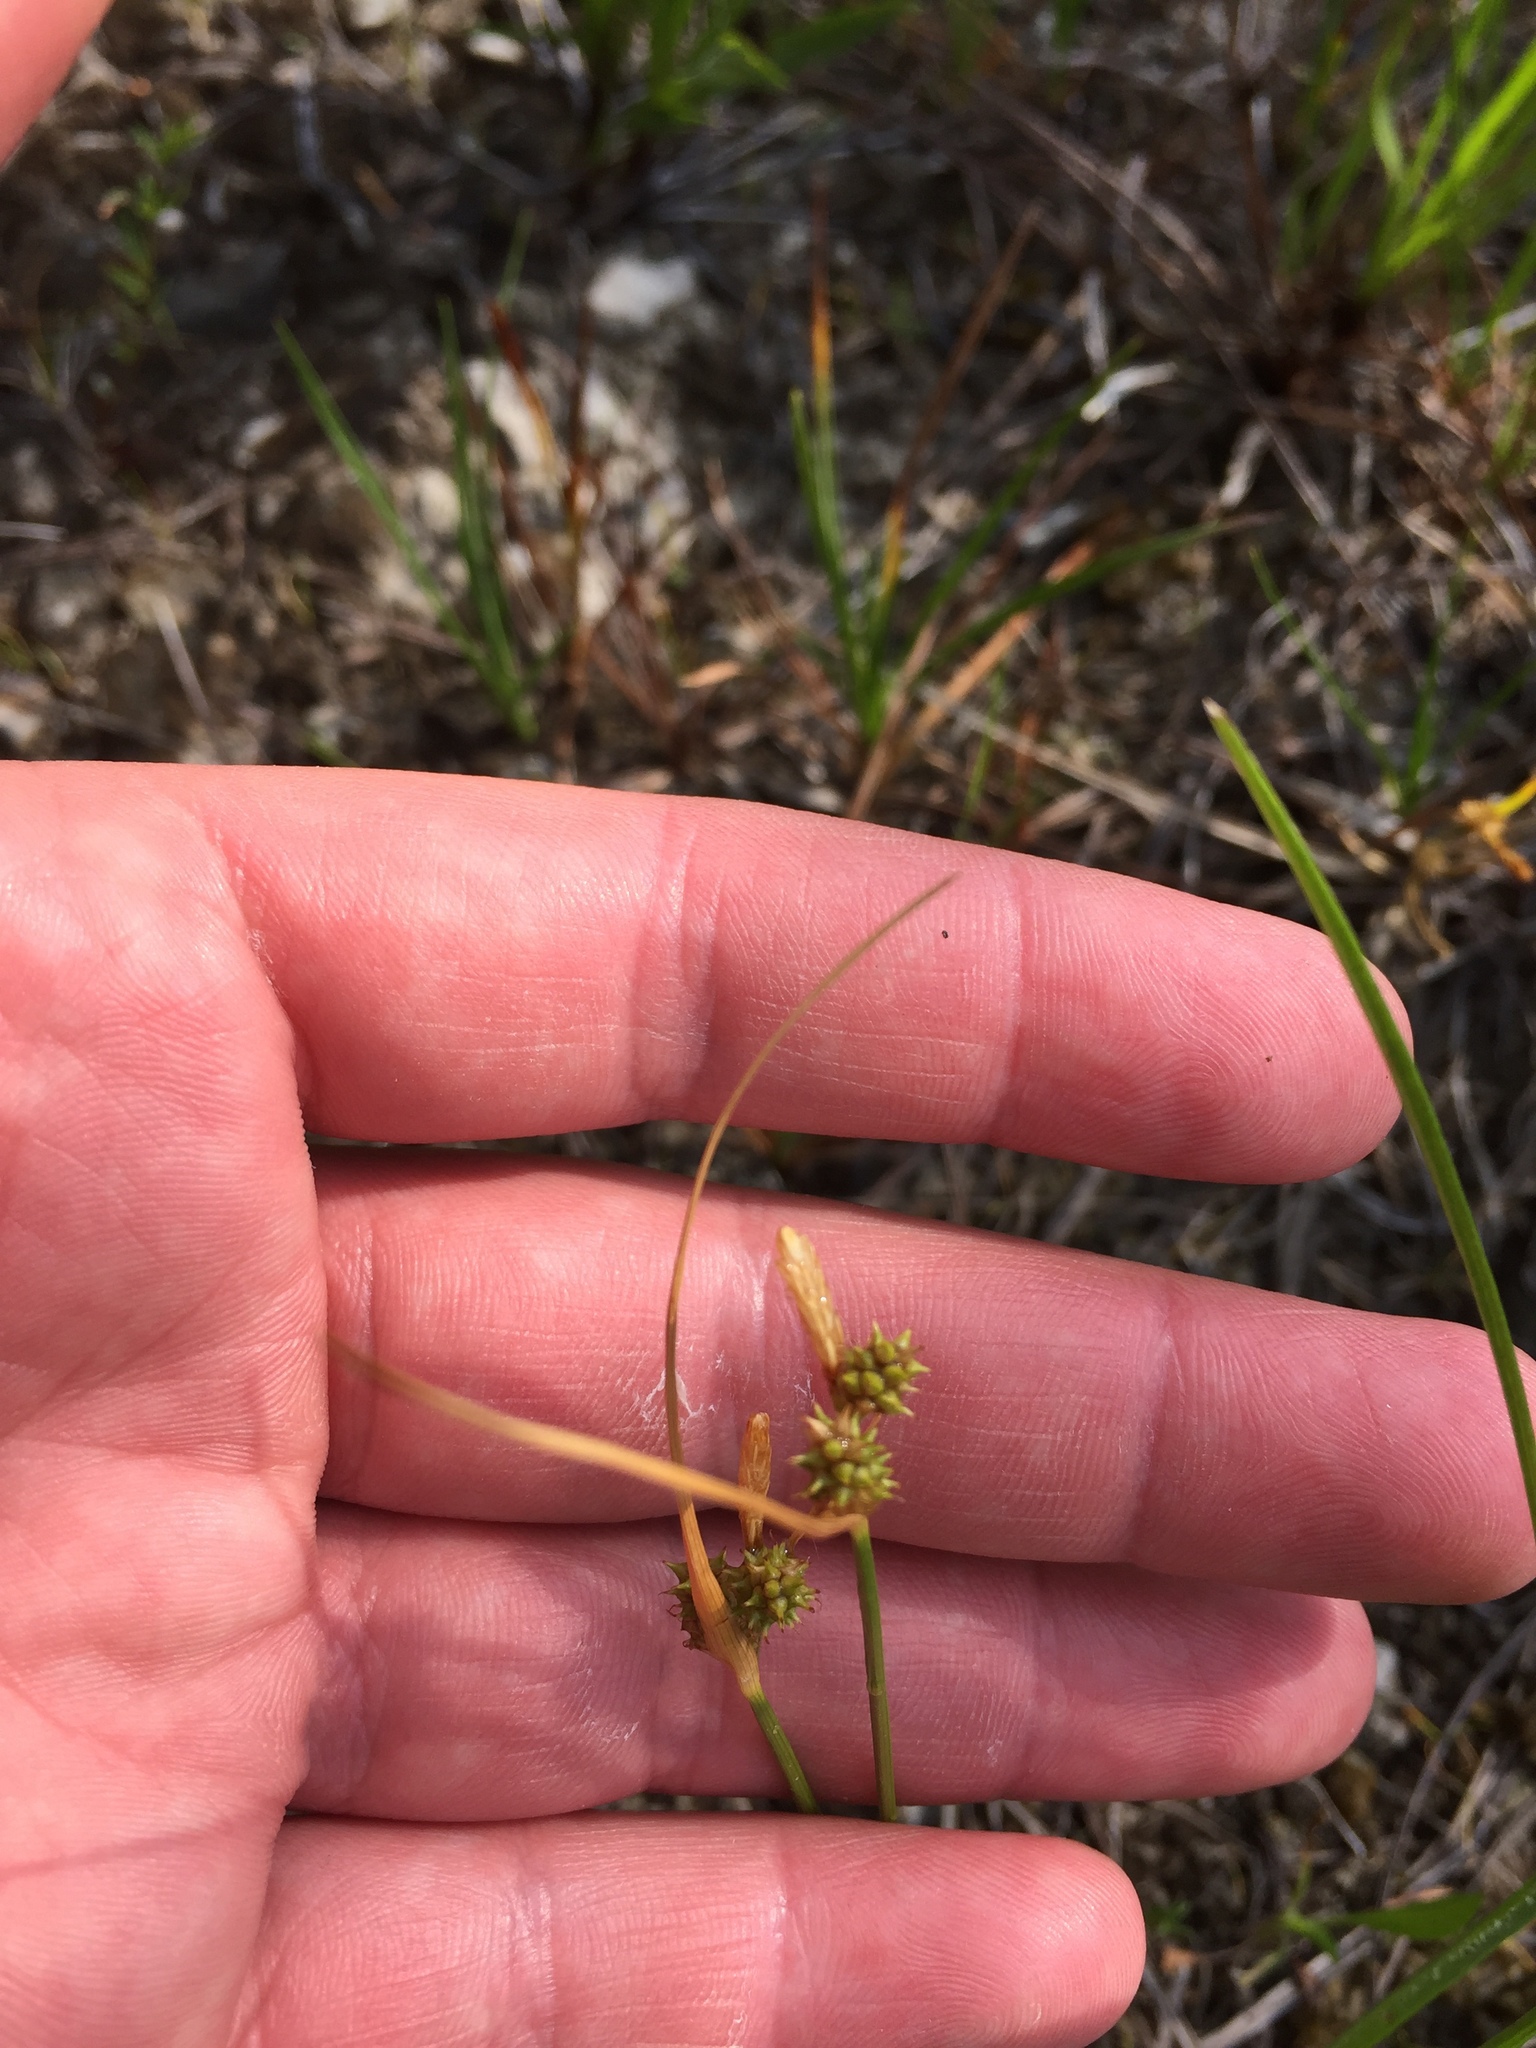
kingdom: Plantae
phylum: Tracheophyta
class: Liliopsida
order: Poales
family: Cyperaceae
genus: Carex
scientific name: Carex
